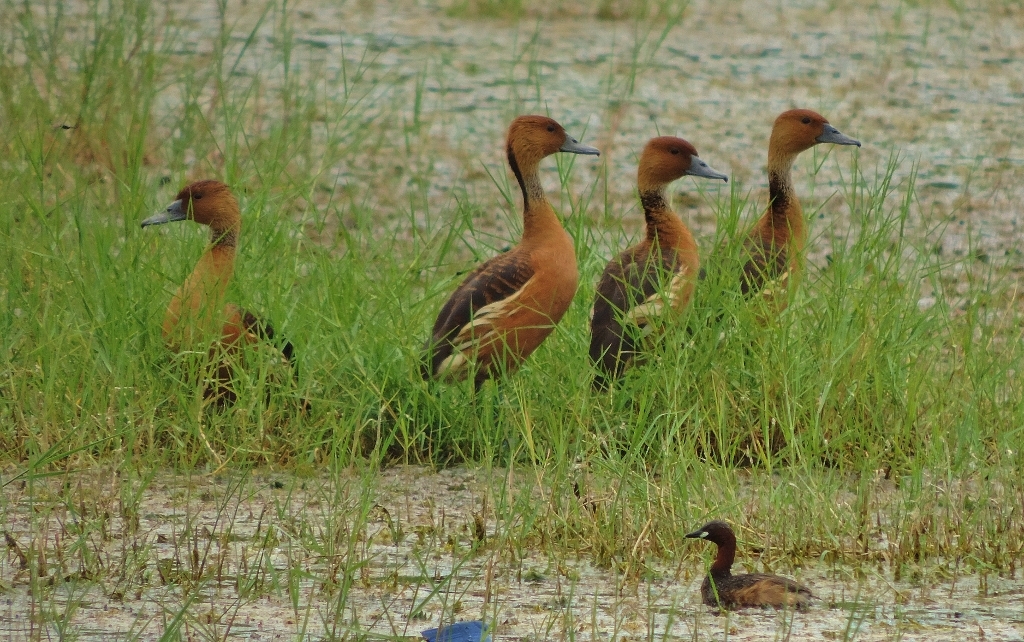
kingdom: Animalia
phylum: Chordata
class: Aves
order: Podicipediformes
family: Podicipedidae
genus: Tachybaptus
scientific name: Tachybaptus ruficollis
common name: Little grebe
